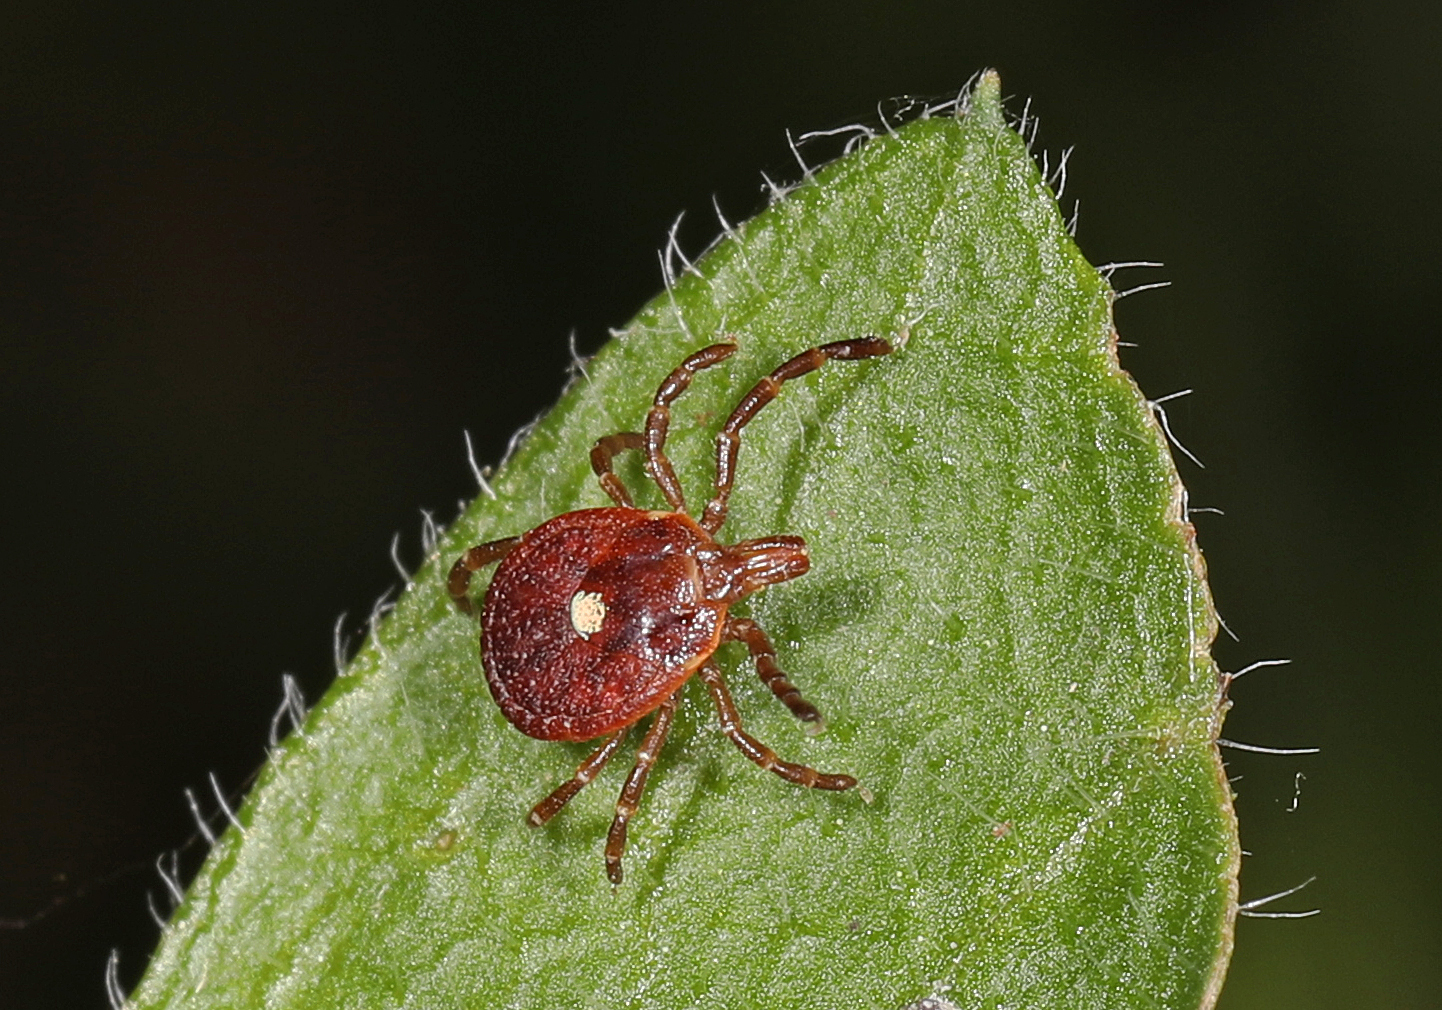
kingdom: Animalia
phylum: Arthropoda
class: Arachnida
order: Ixodida
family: Ixodidae
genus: Amblyomma
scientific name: Amblyomma americanum
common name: Lone star tick
